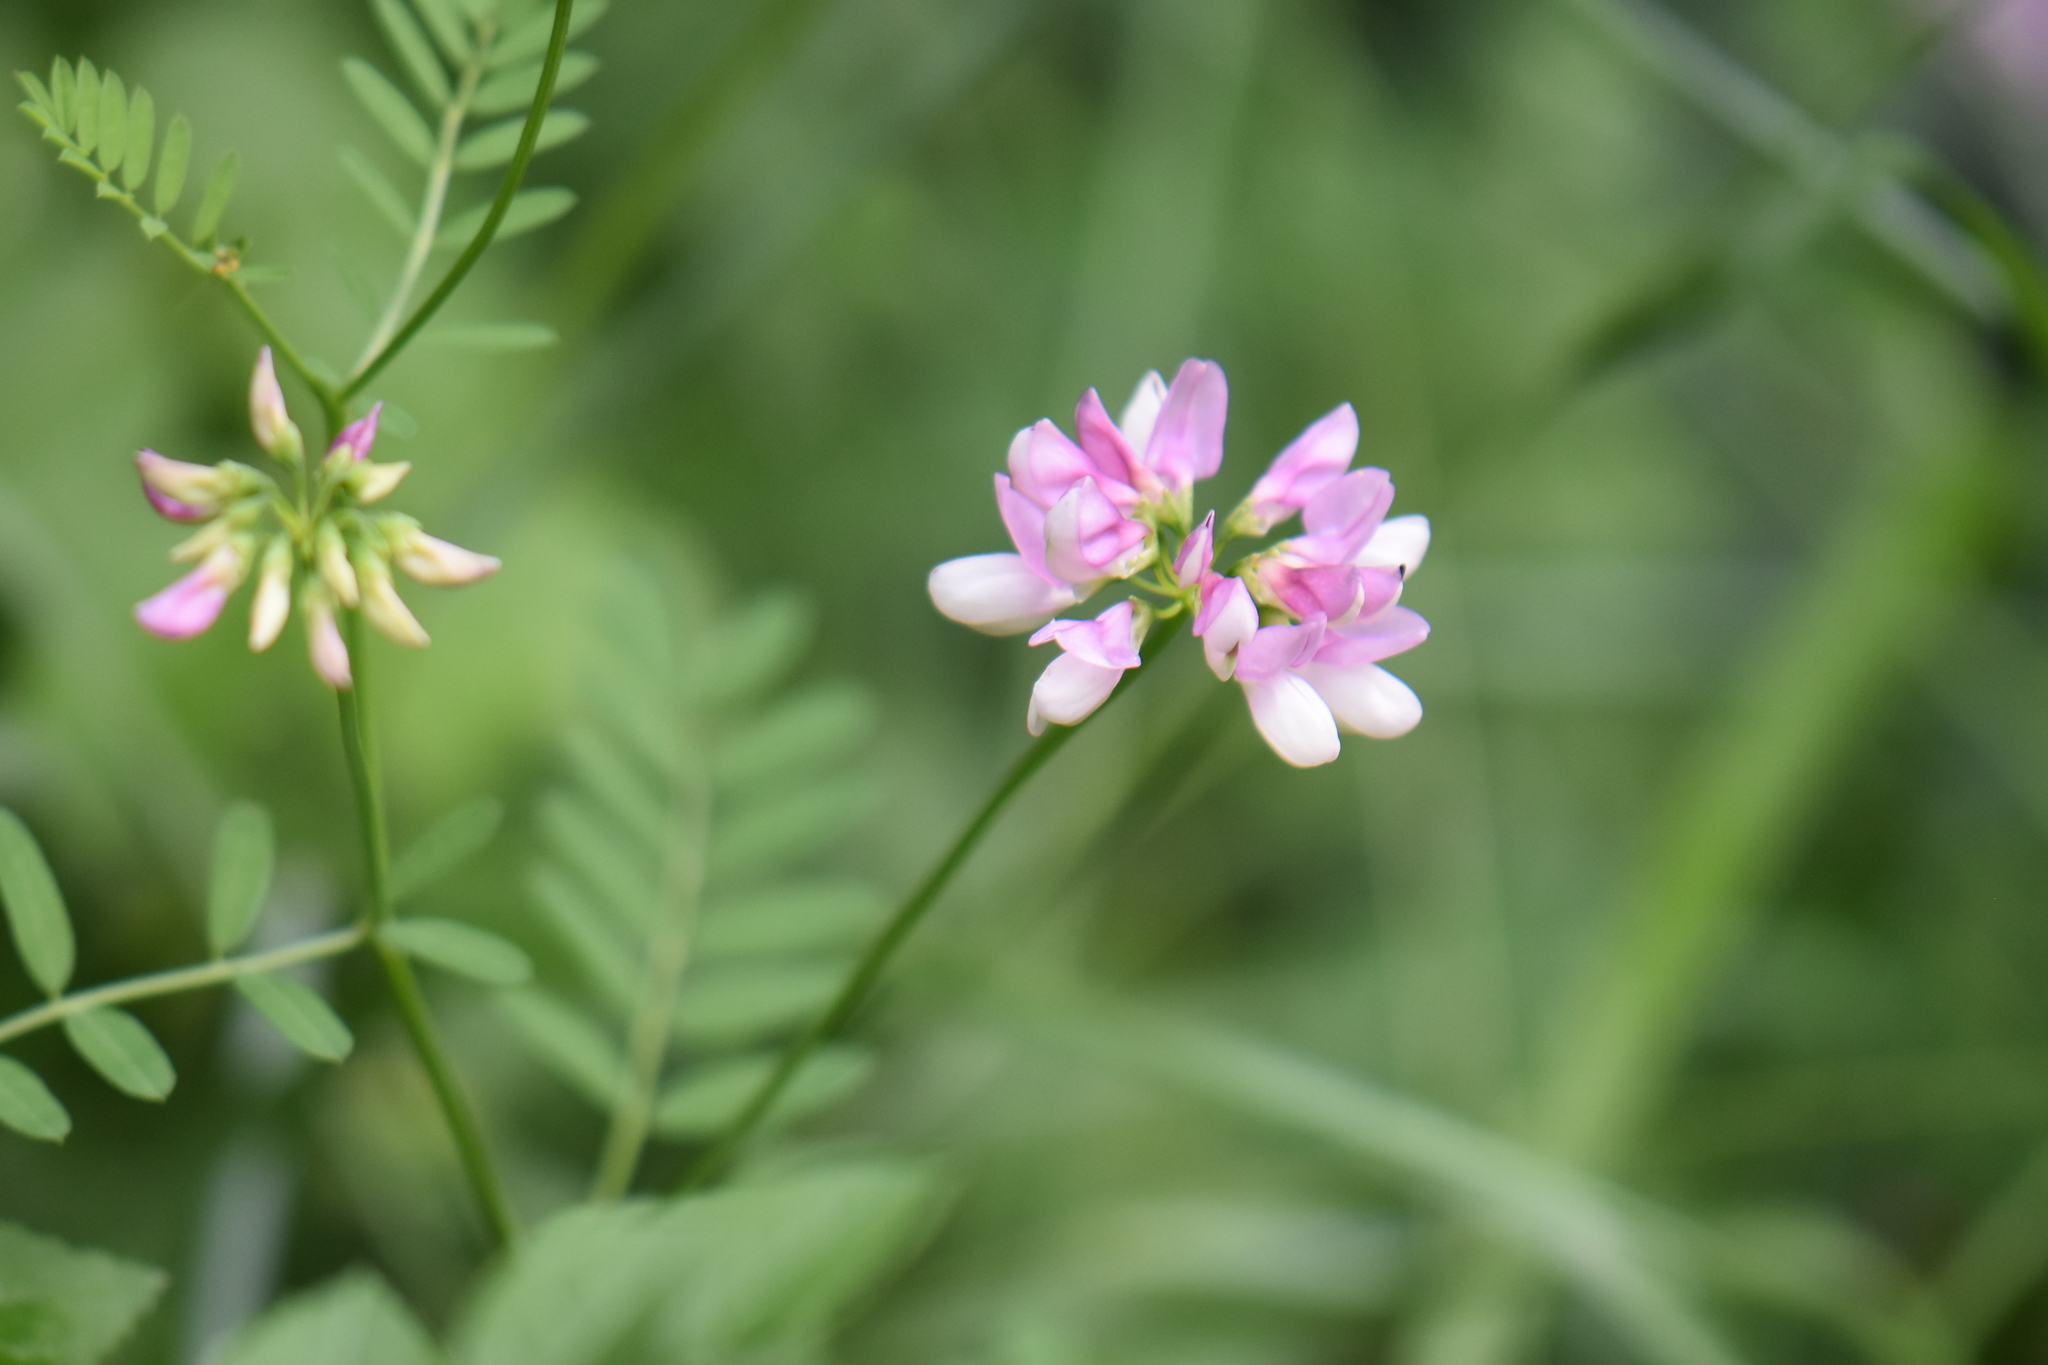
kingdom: Plantae
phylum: Tracheophyta
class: Magnoliopsida
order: Fabales
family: Fabaceae
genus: Coronilla
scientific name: Coronilla varia
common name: Crownvetch
